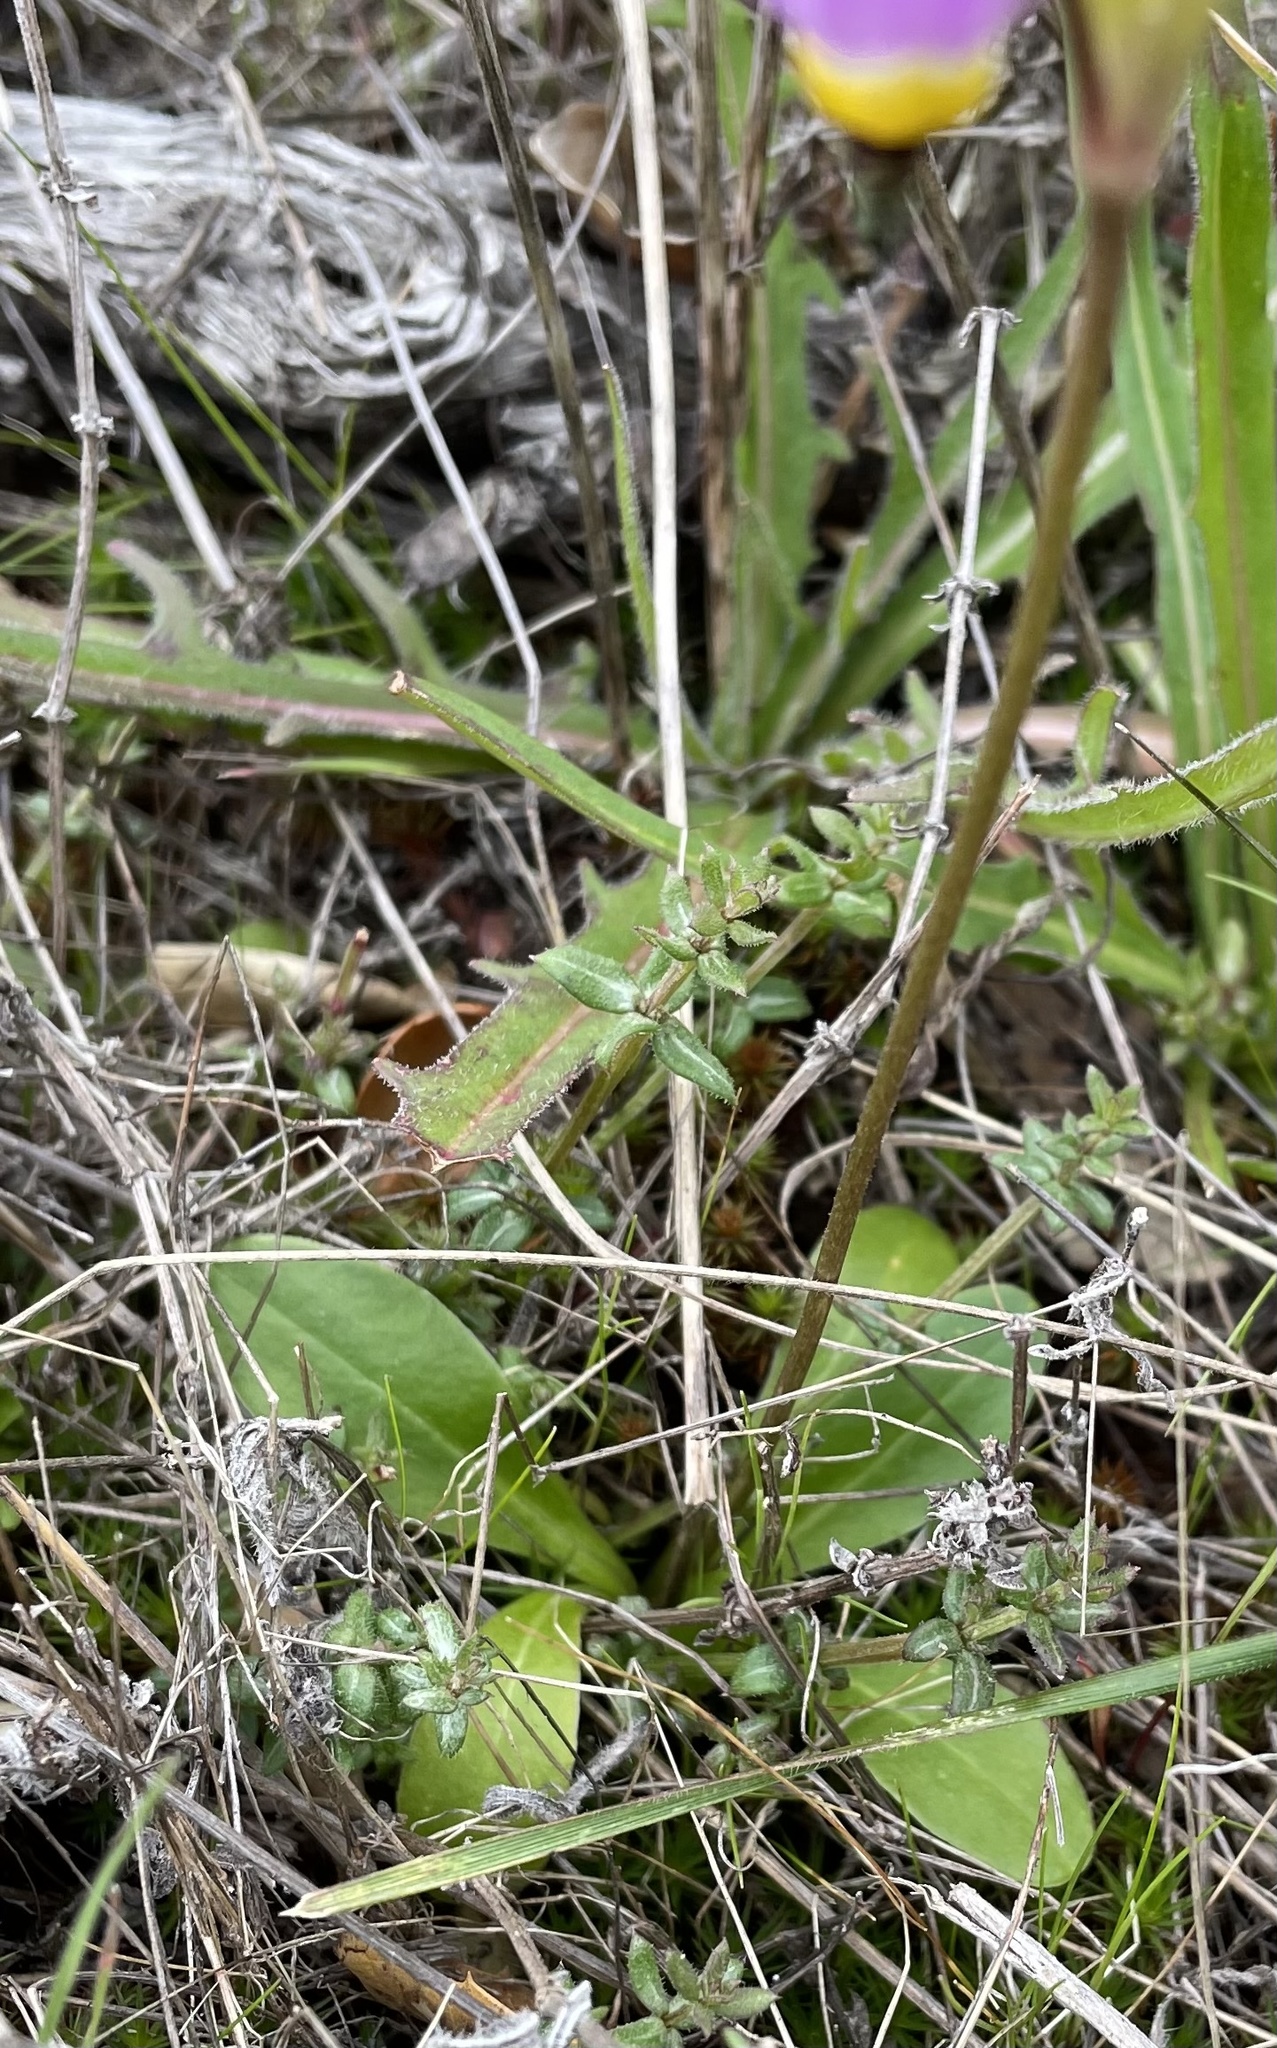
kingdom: Plantae
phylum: Tracheophyta
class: Magnoliopsida
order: Ericales
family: Primulaceae
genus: Dodecatheon
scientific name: Dodecatheon clevelandii
